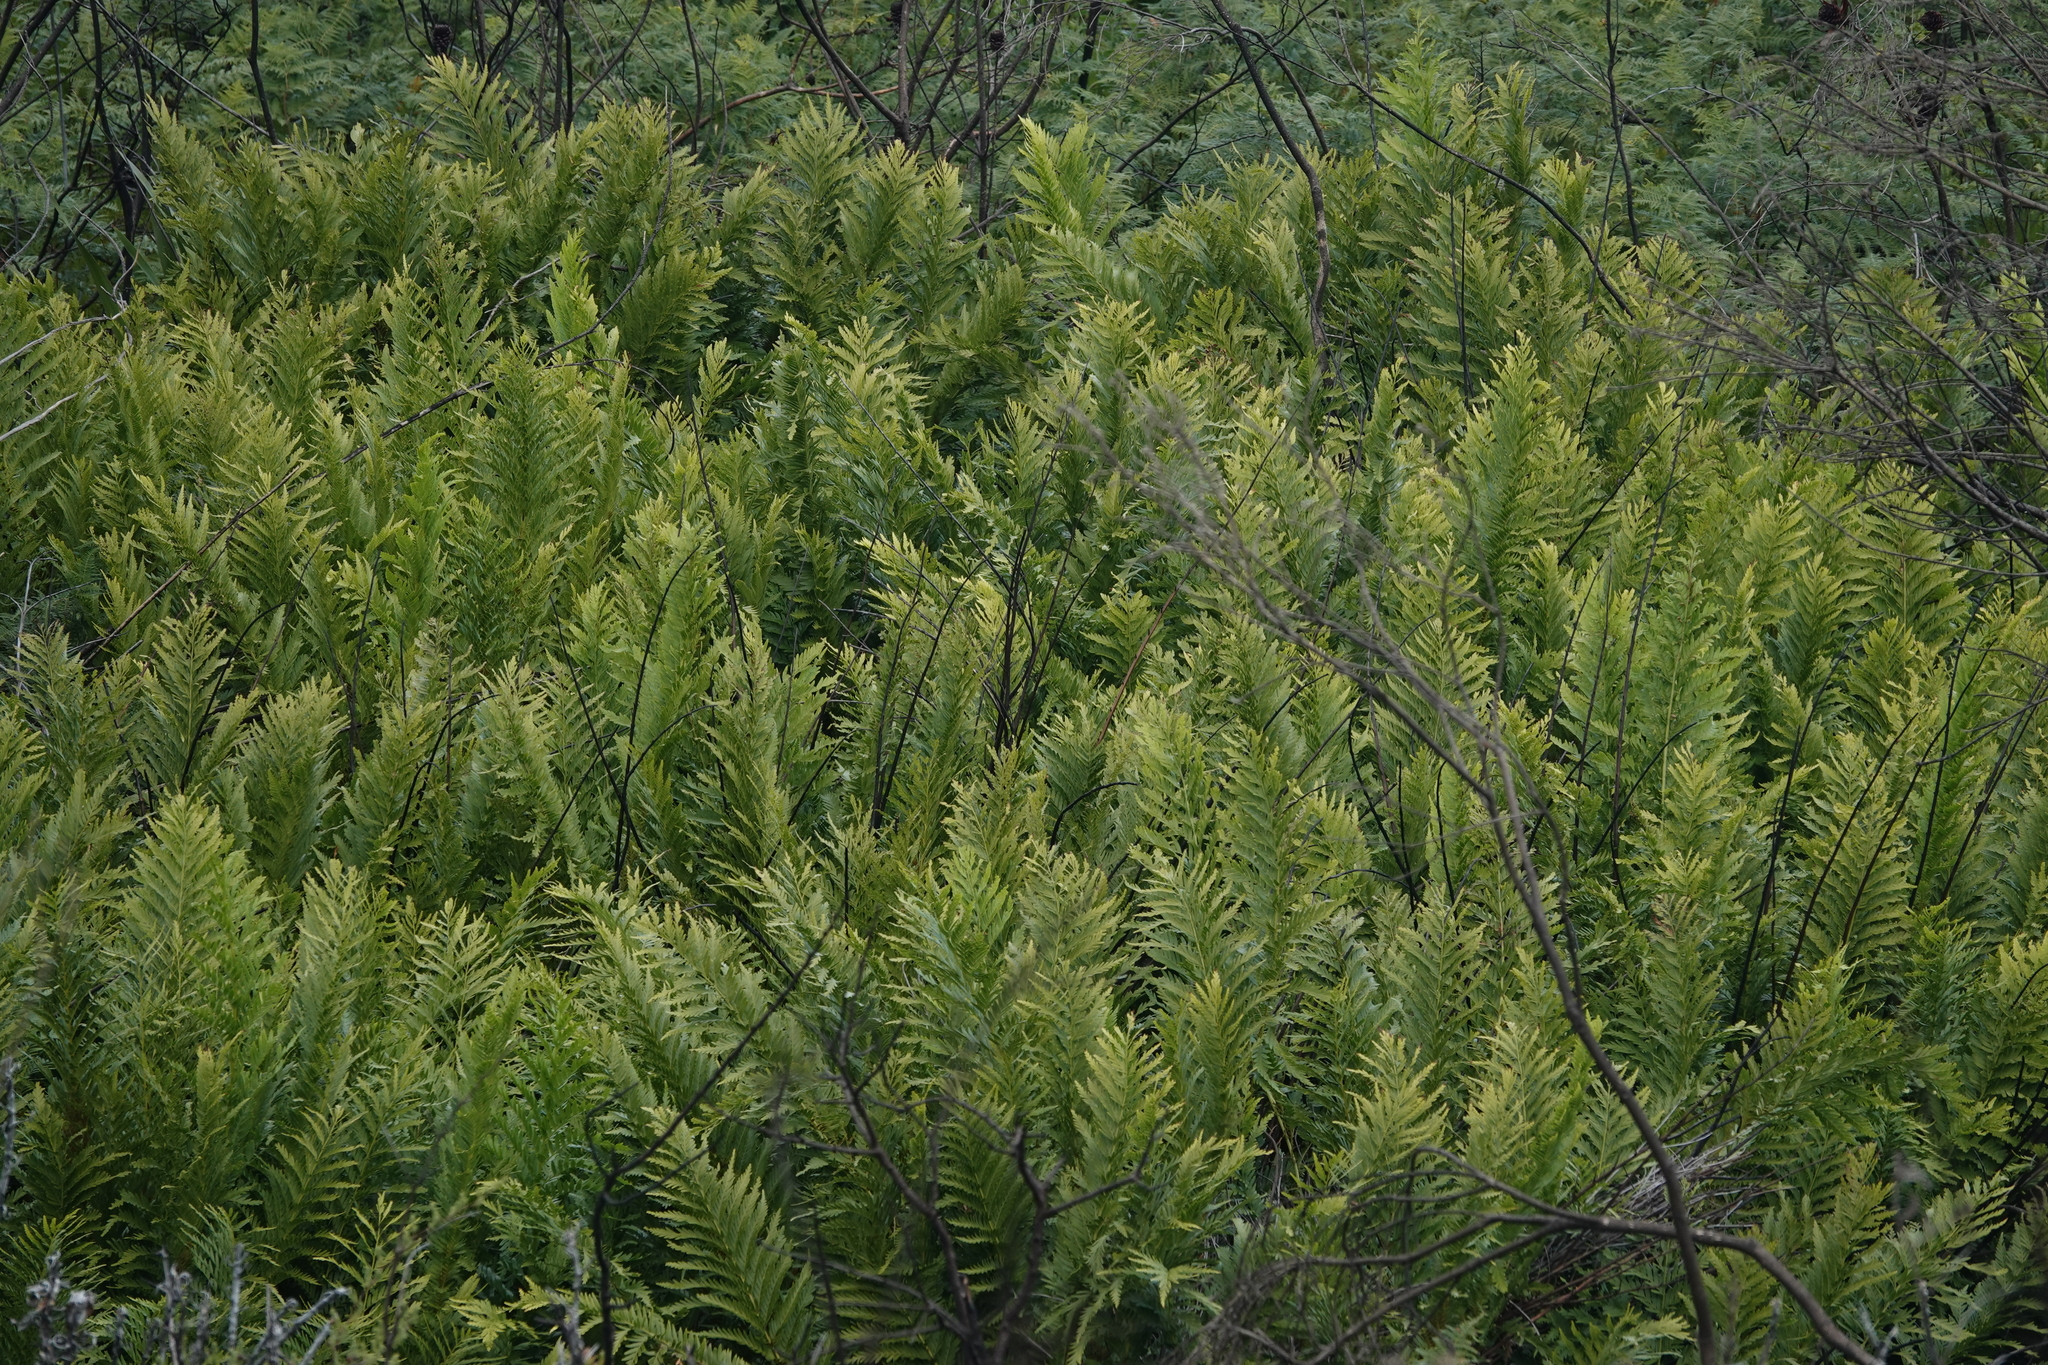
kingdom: Plantae
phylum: Tracheophyta
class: Polypodiopsida
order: Osmundales
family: Osmundaceae
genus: Todea
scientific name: Todea barbara
